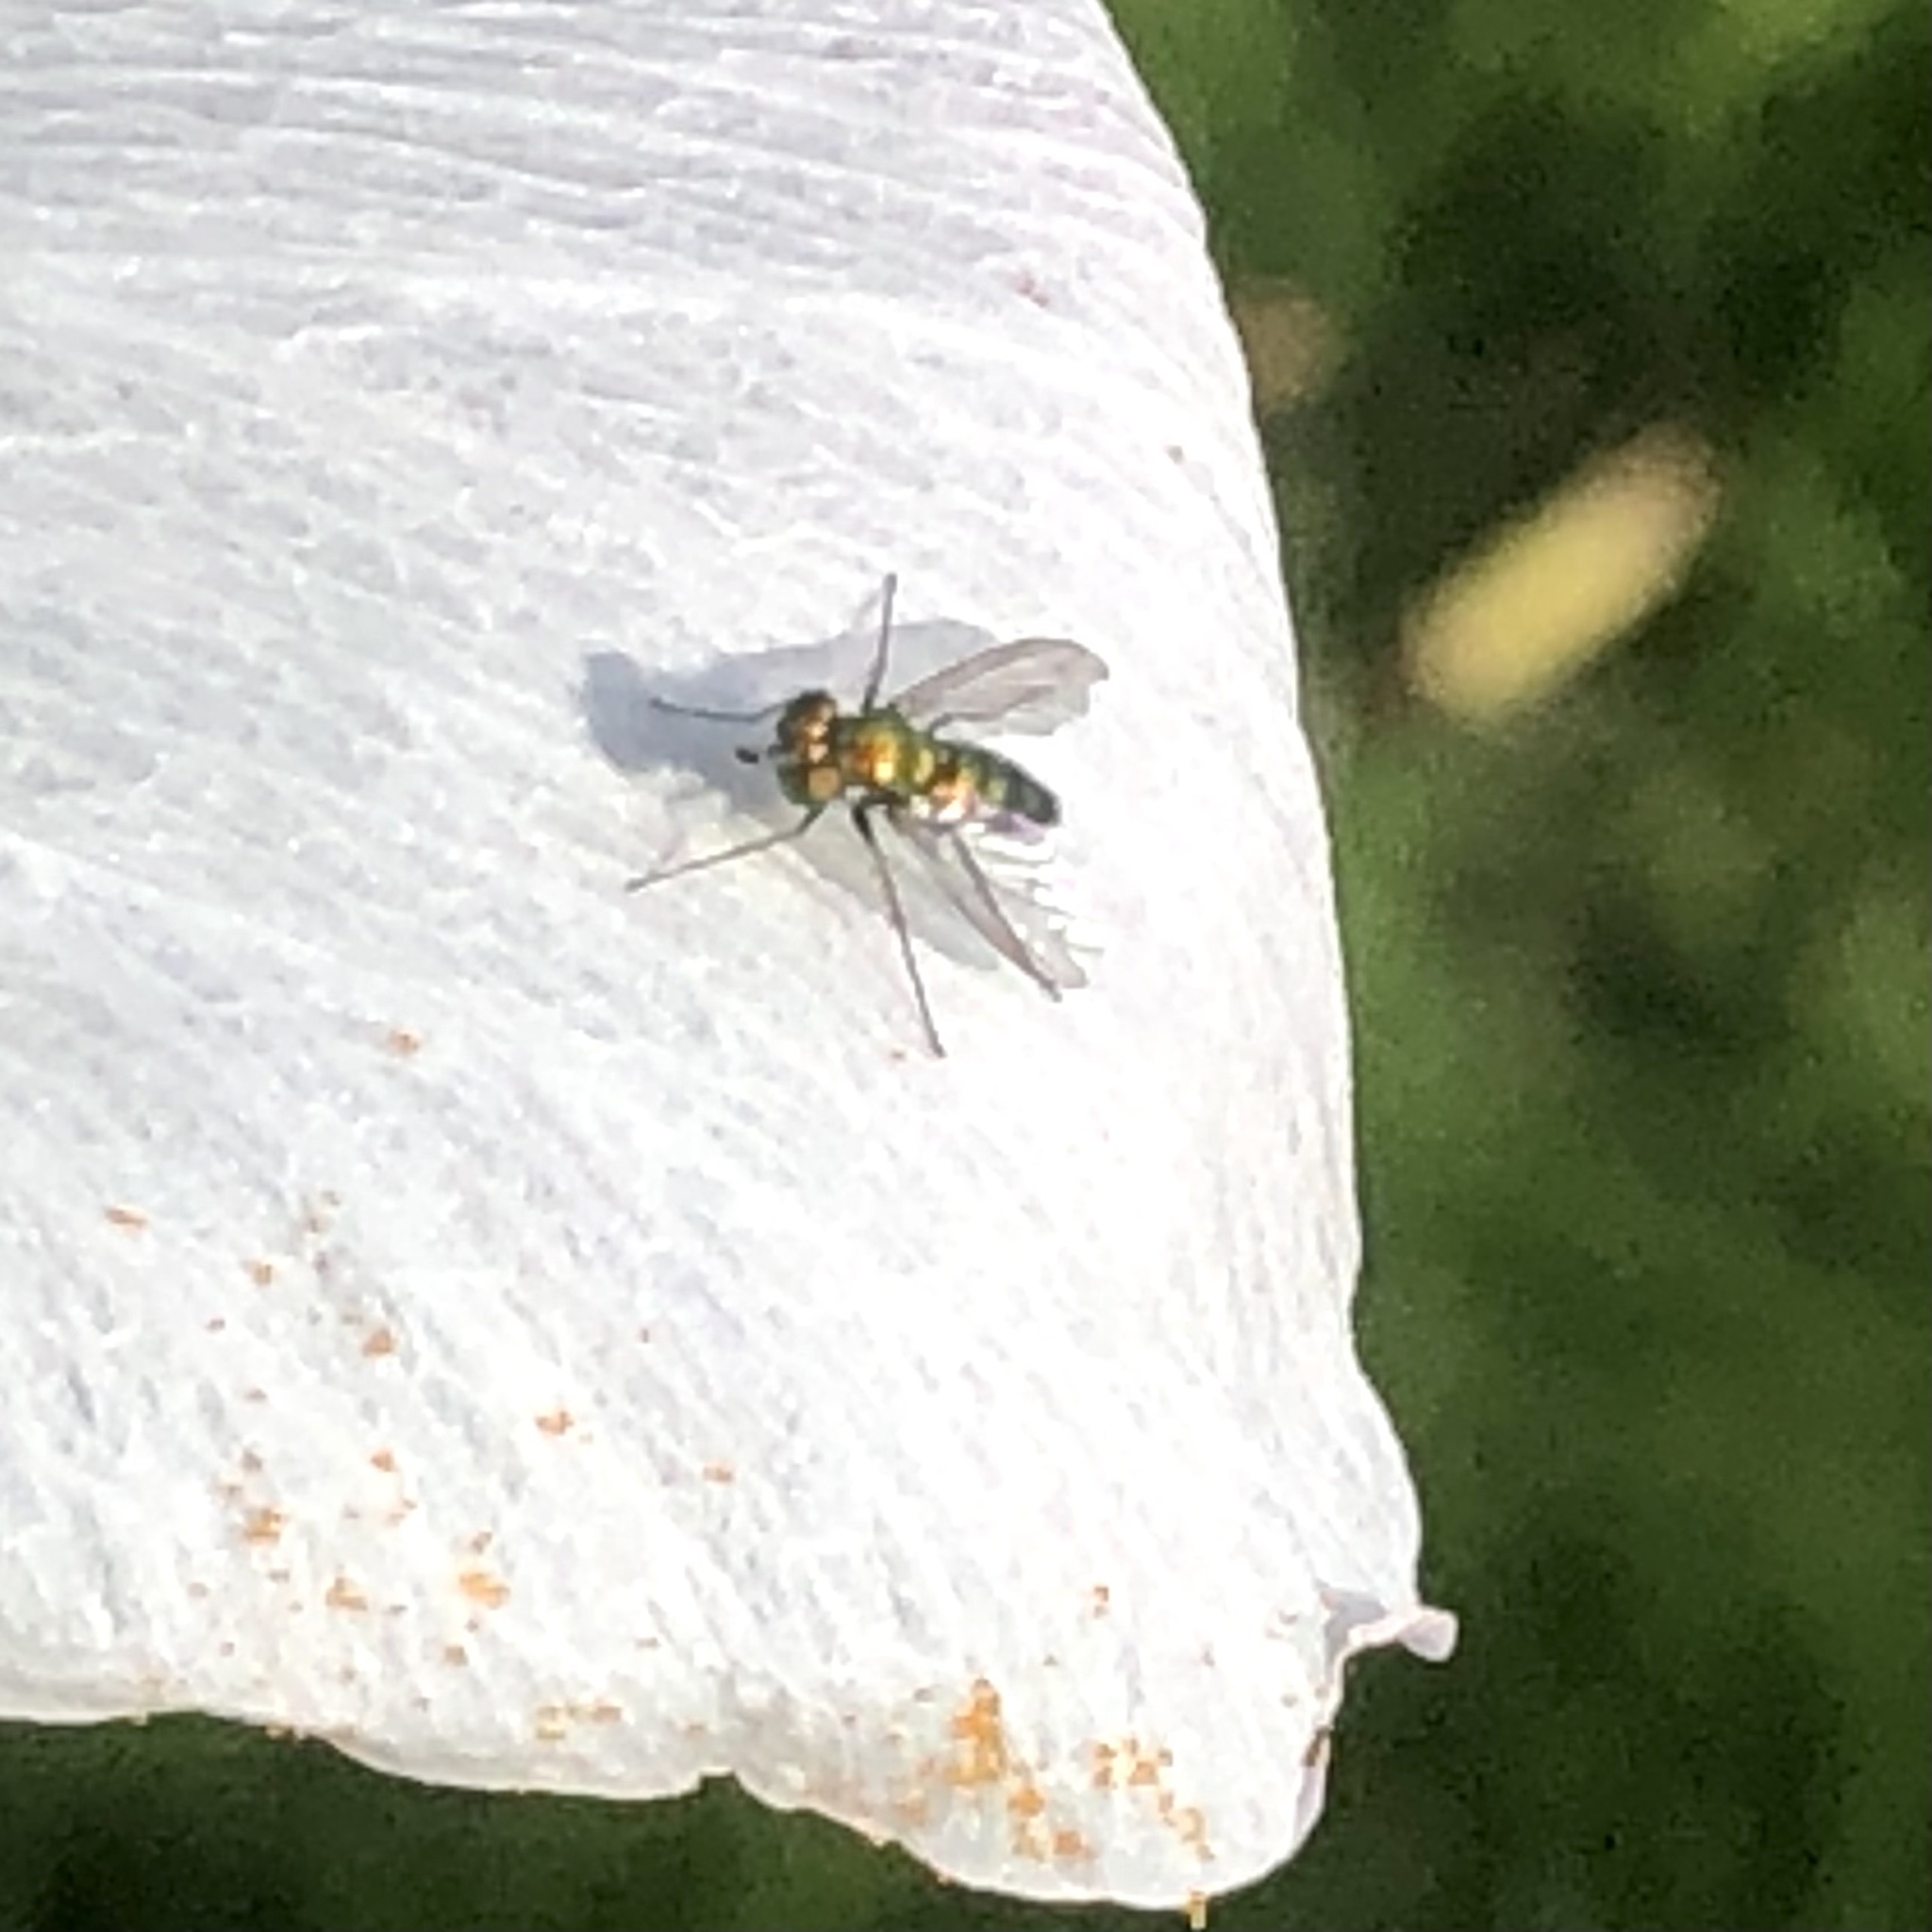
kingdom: Animalia
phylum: Arthropoda
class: Insecta
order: Diptera
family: Dolichopodidae
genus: Condylostylus
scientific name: Condylostylus longicornis
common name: Long-legged fly
